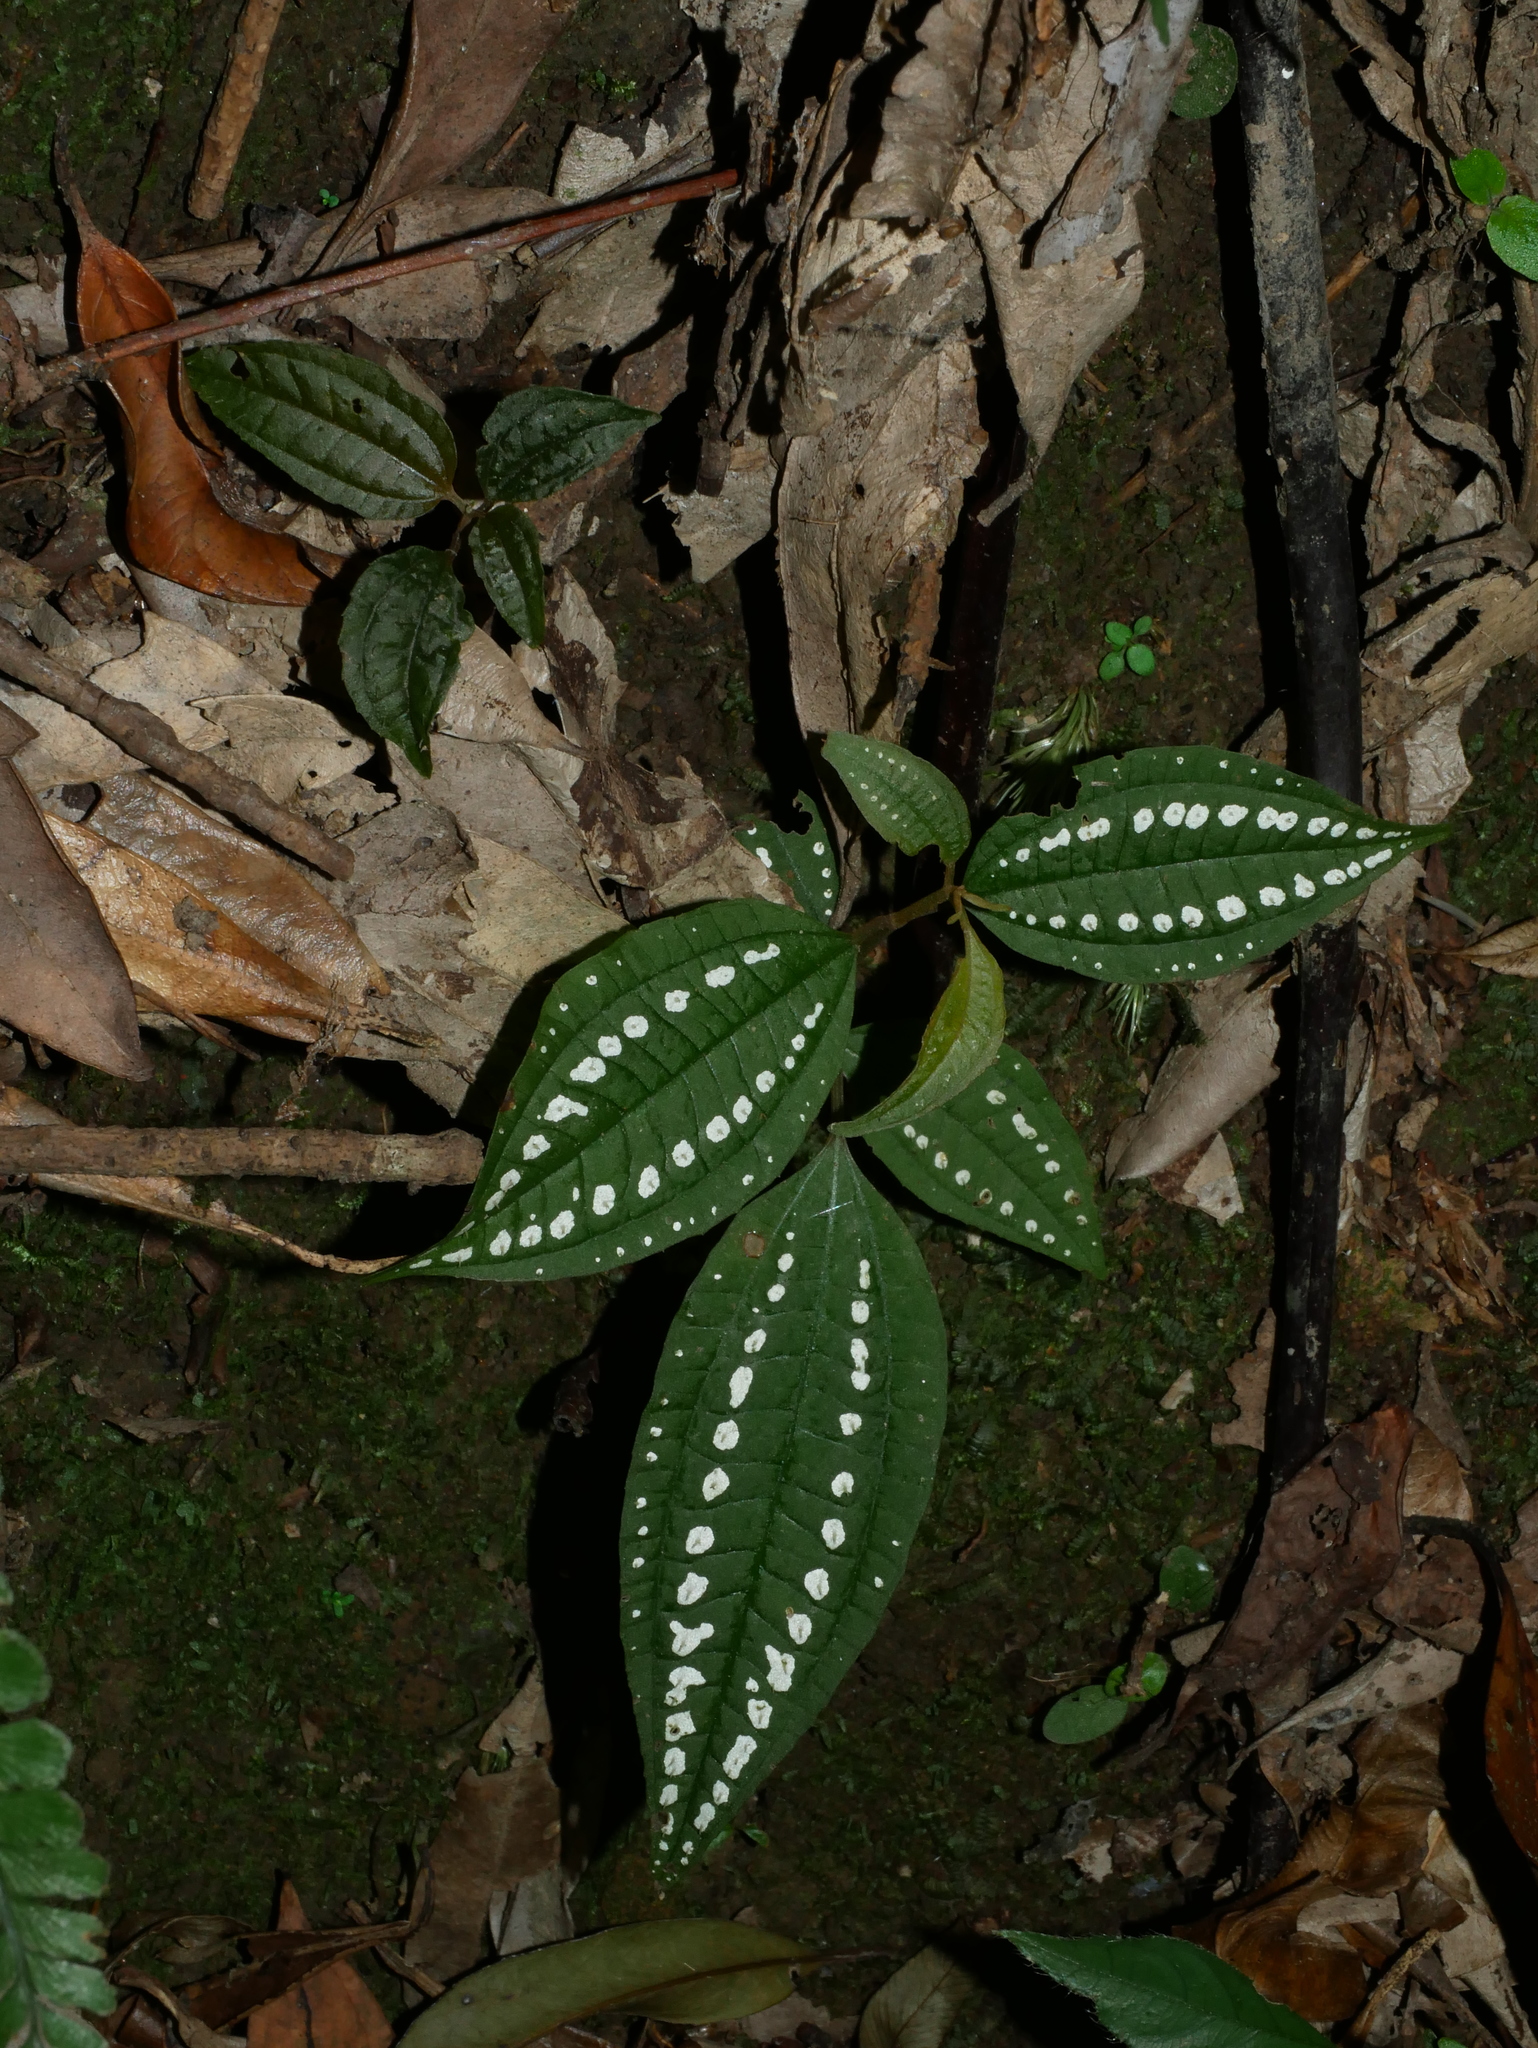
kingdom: Plantae
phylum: Tracheophyta
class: Magnoliopsida
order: Myrtales
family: Melastomataceae
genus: Blastus
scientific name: Blastus cochinchinensis
